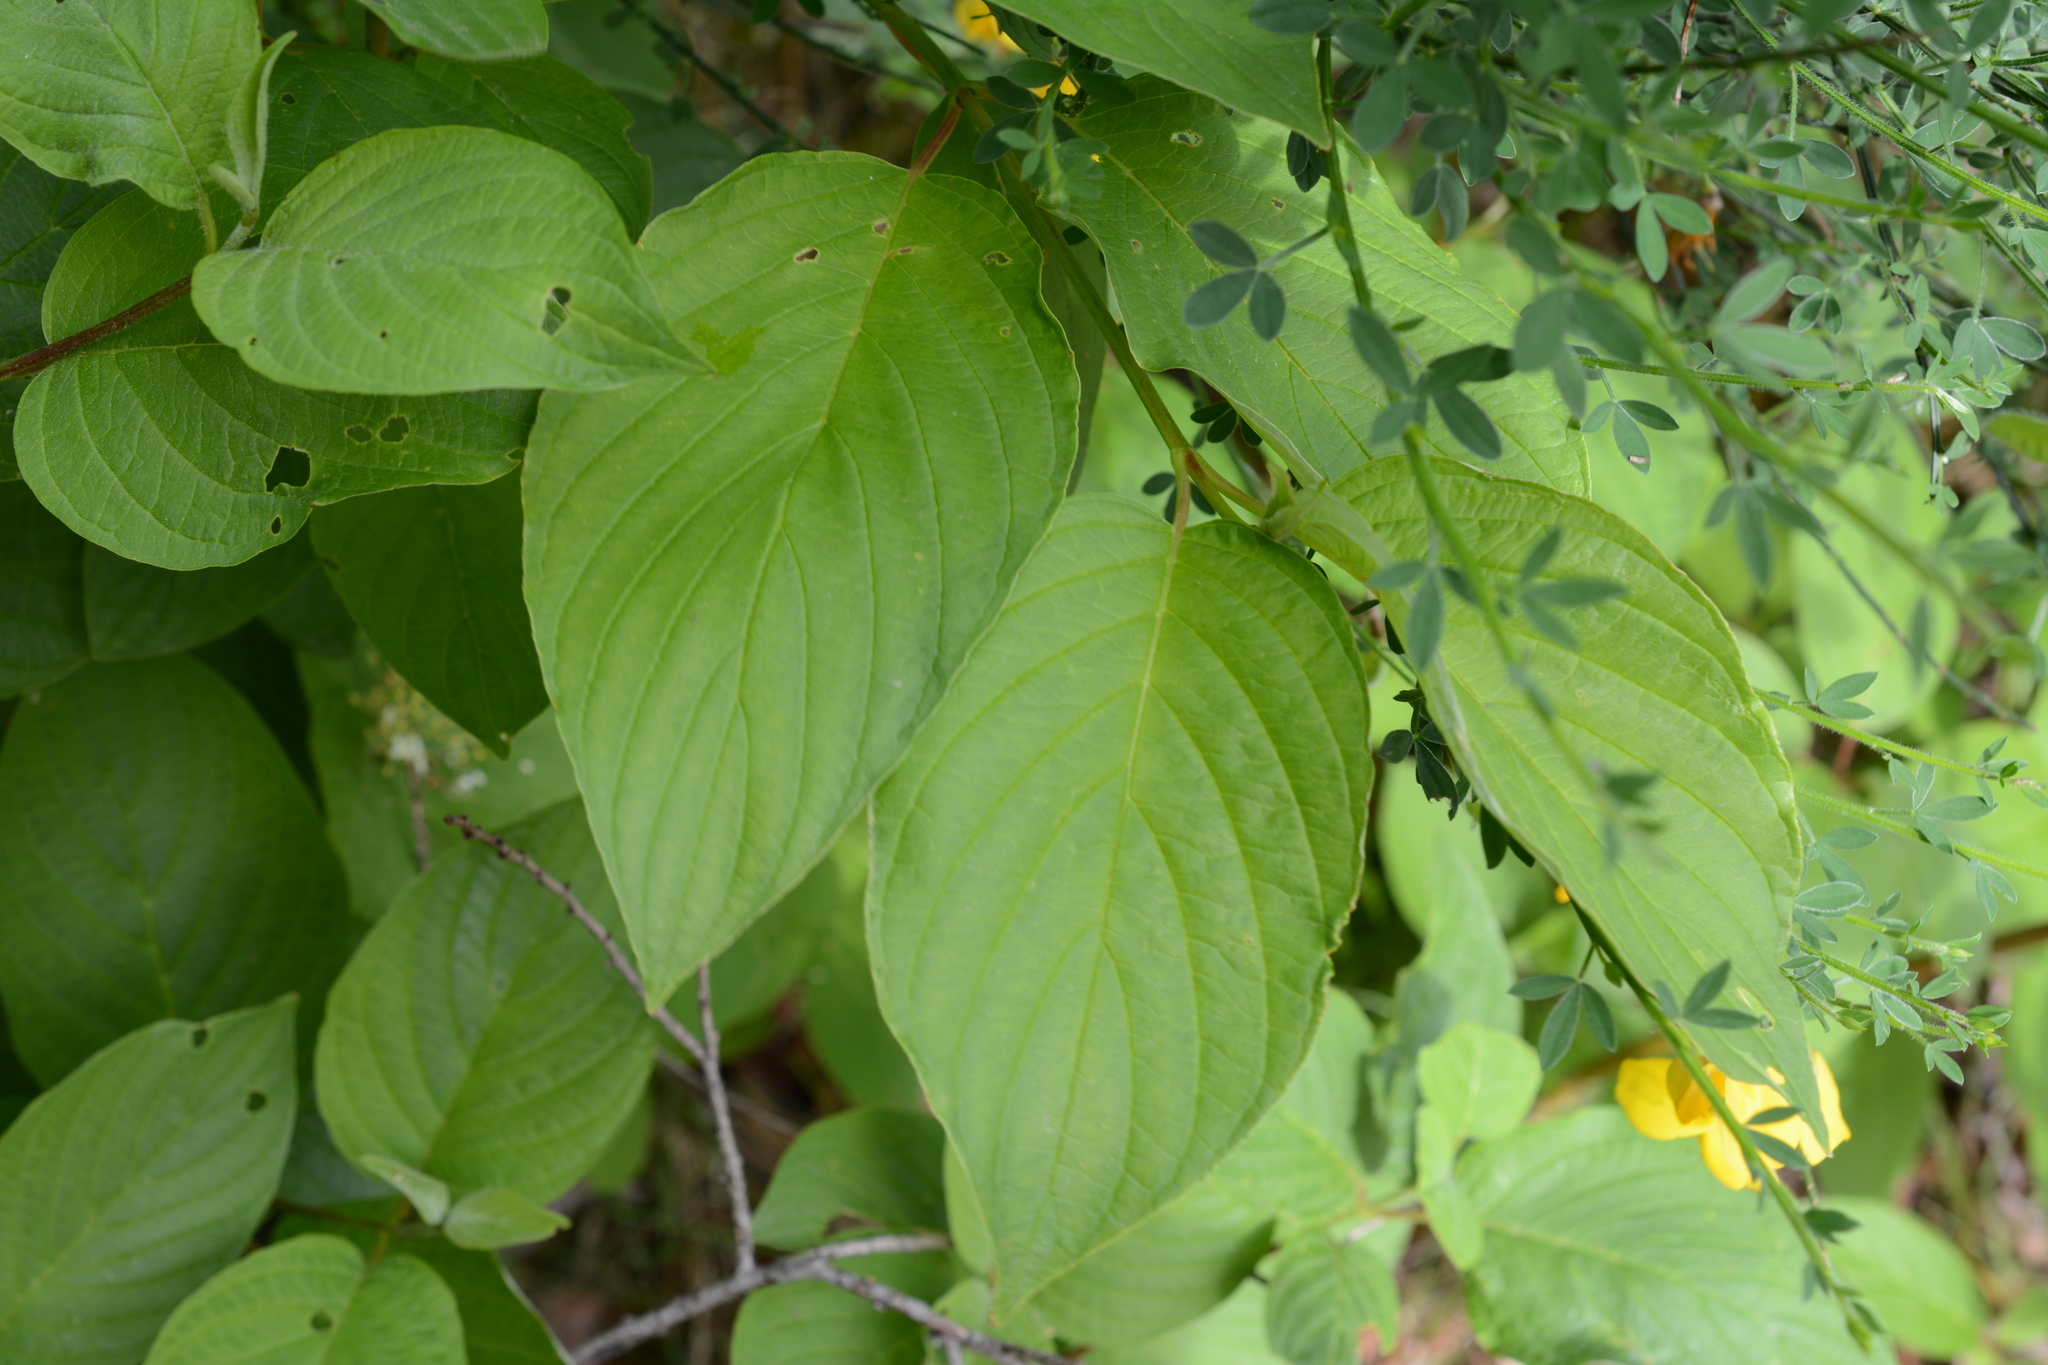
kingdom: Plantae
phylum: Tracheophyta
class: Magnoliopsida
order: Cornales
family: Cornaceae
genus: Cornus
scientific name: Cornus sericea
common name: Red-osier dogwood
